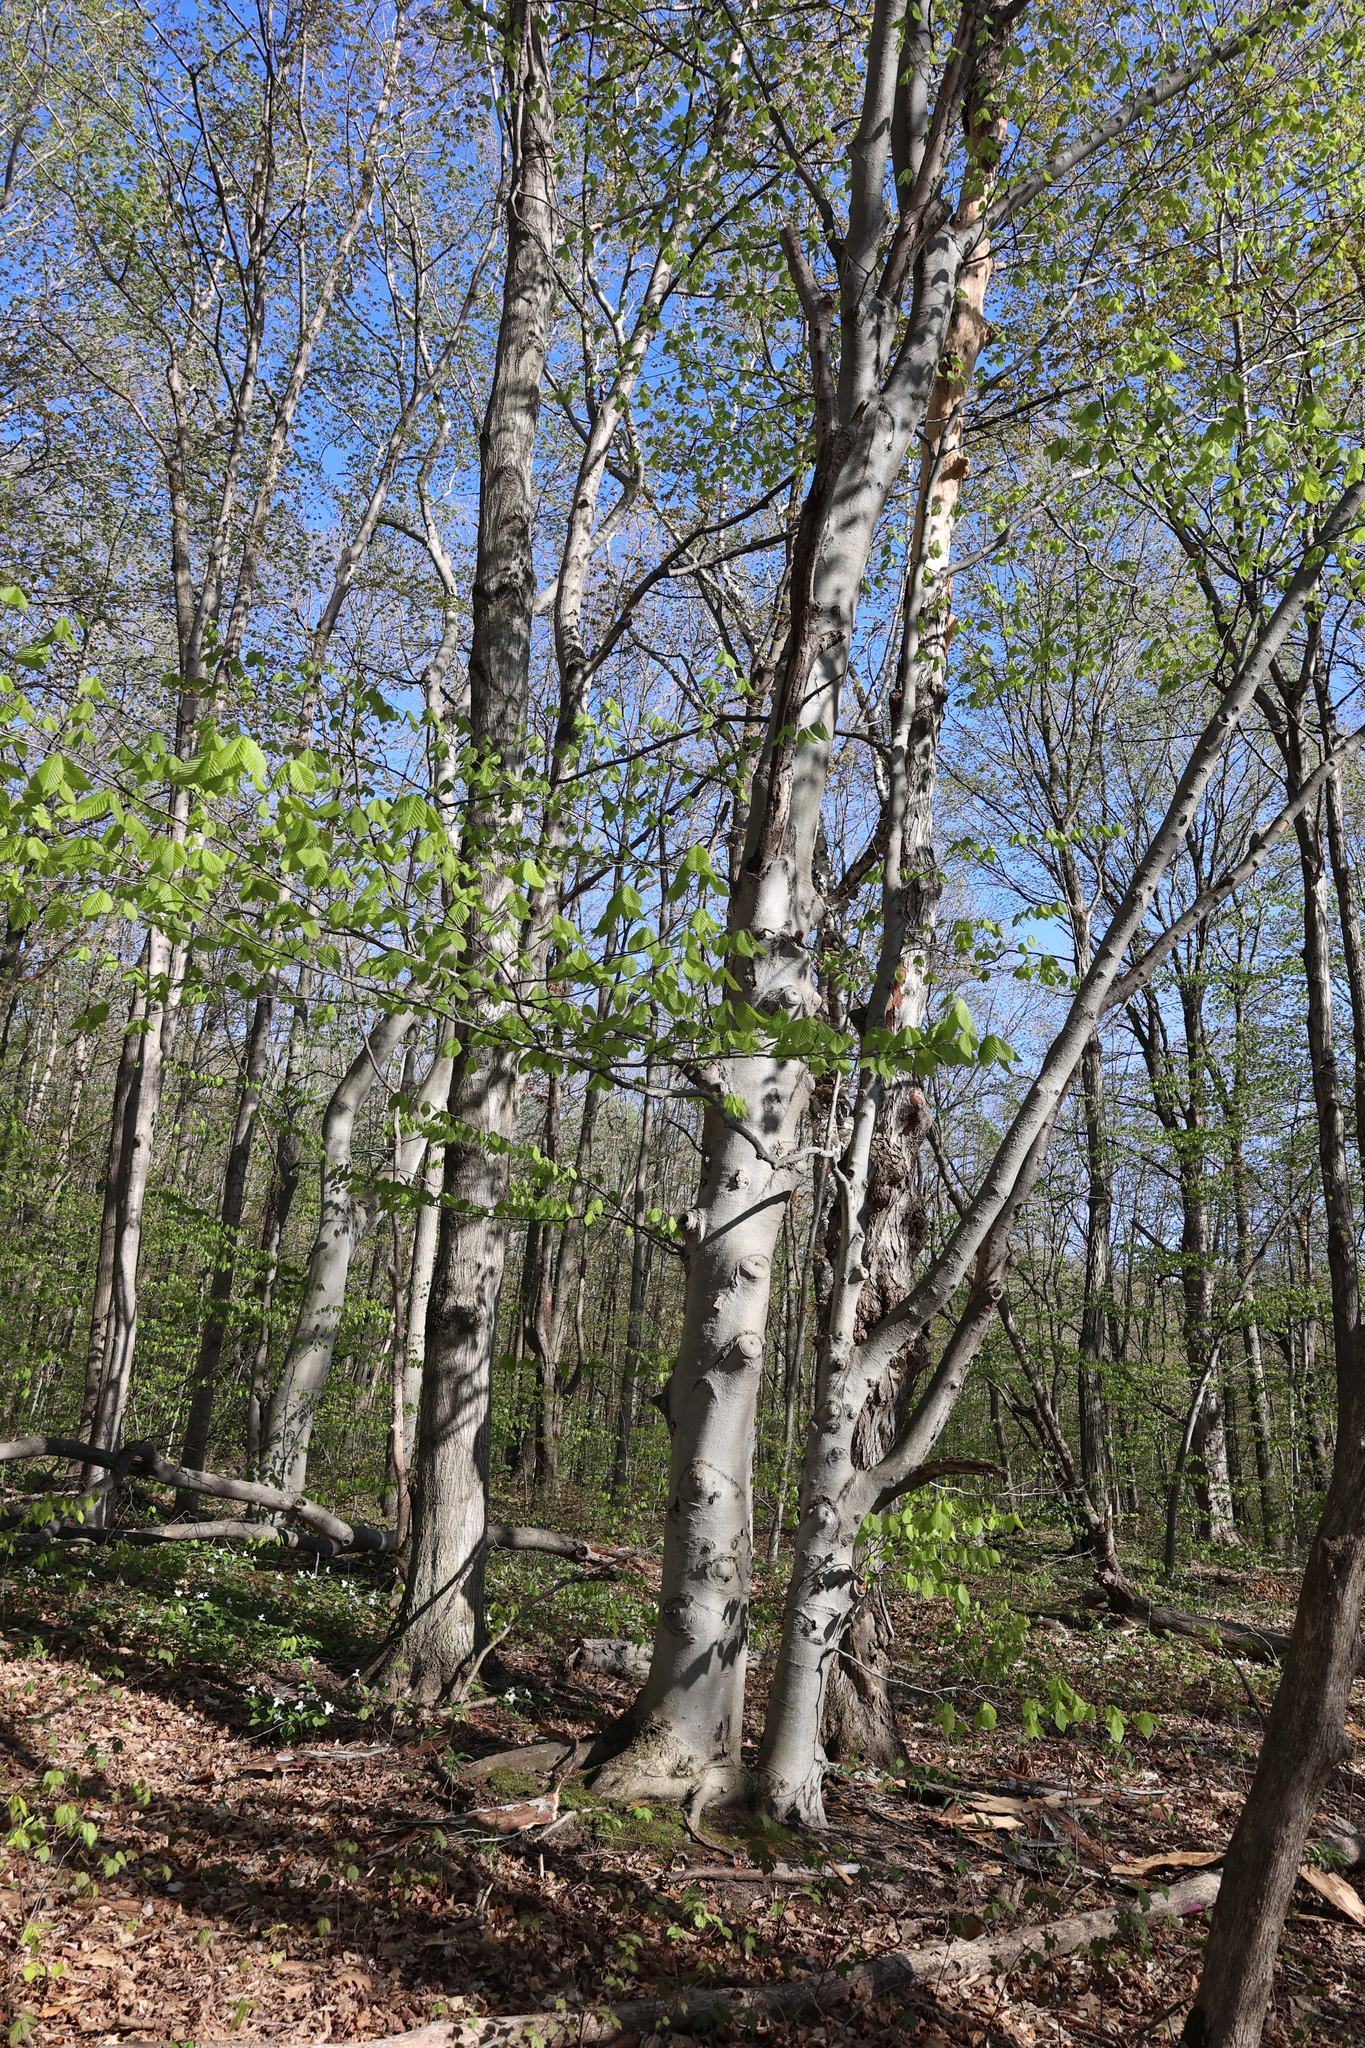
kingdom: Plantae
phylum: Tracheophyta
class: Magnoliopsida
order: Fagales
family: Fagaceae
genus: Fagus
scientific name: Fagus grandifolia
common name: American beech
